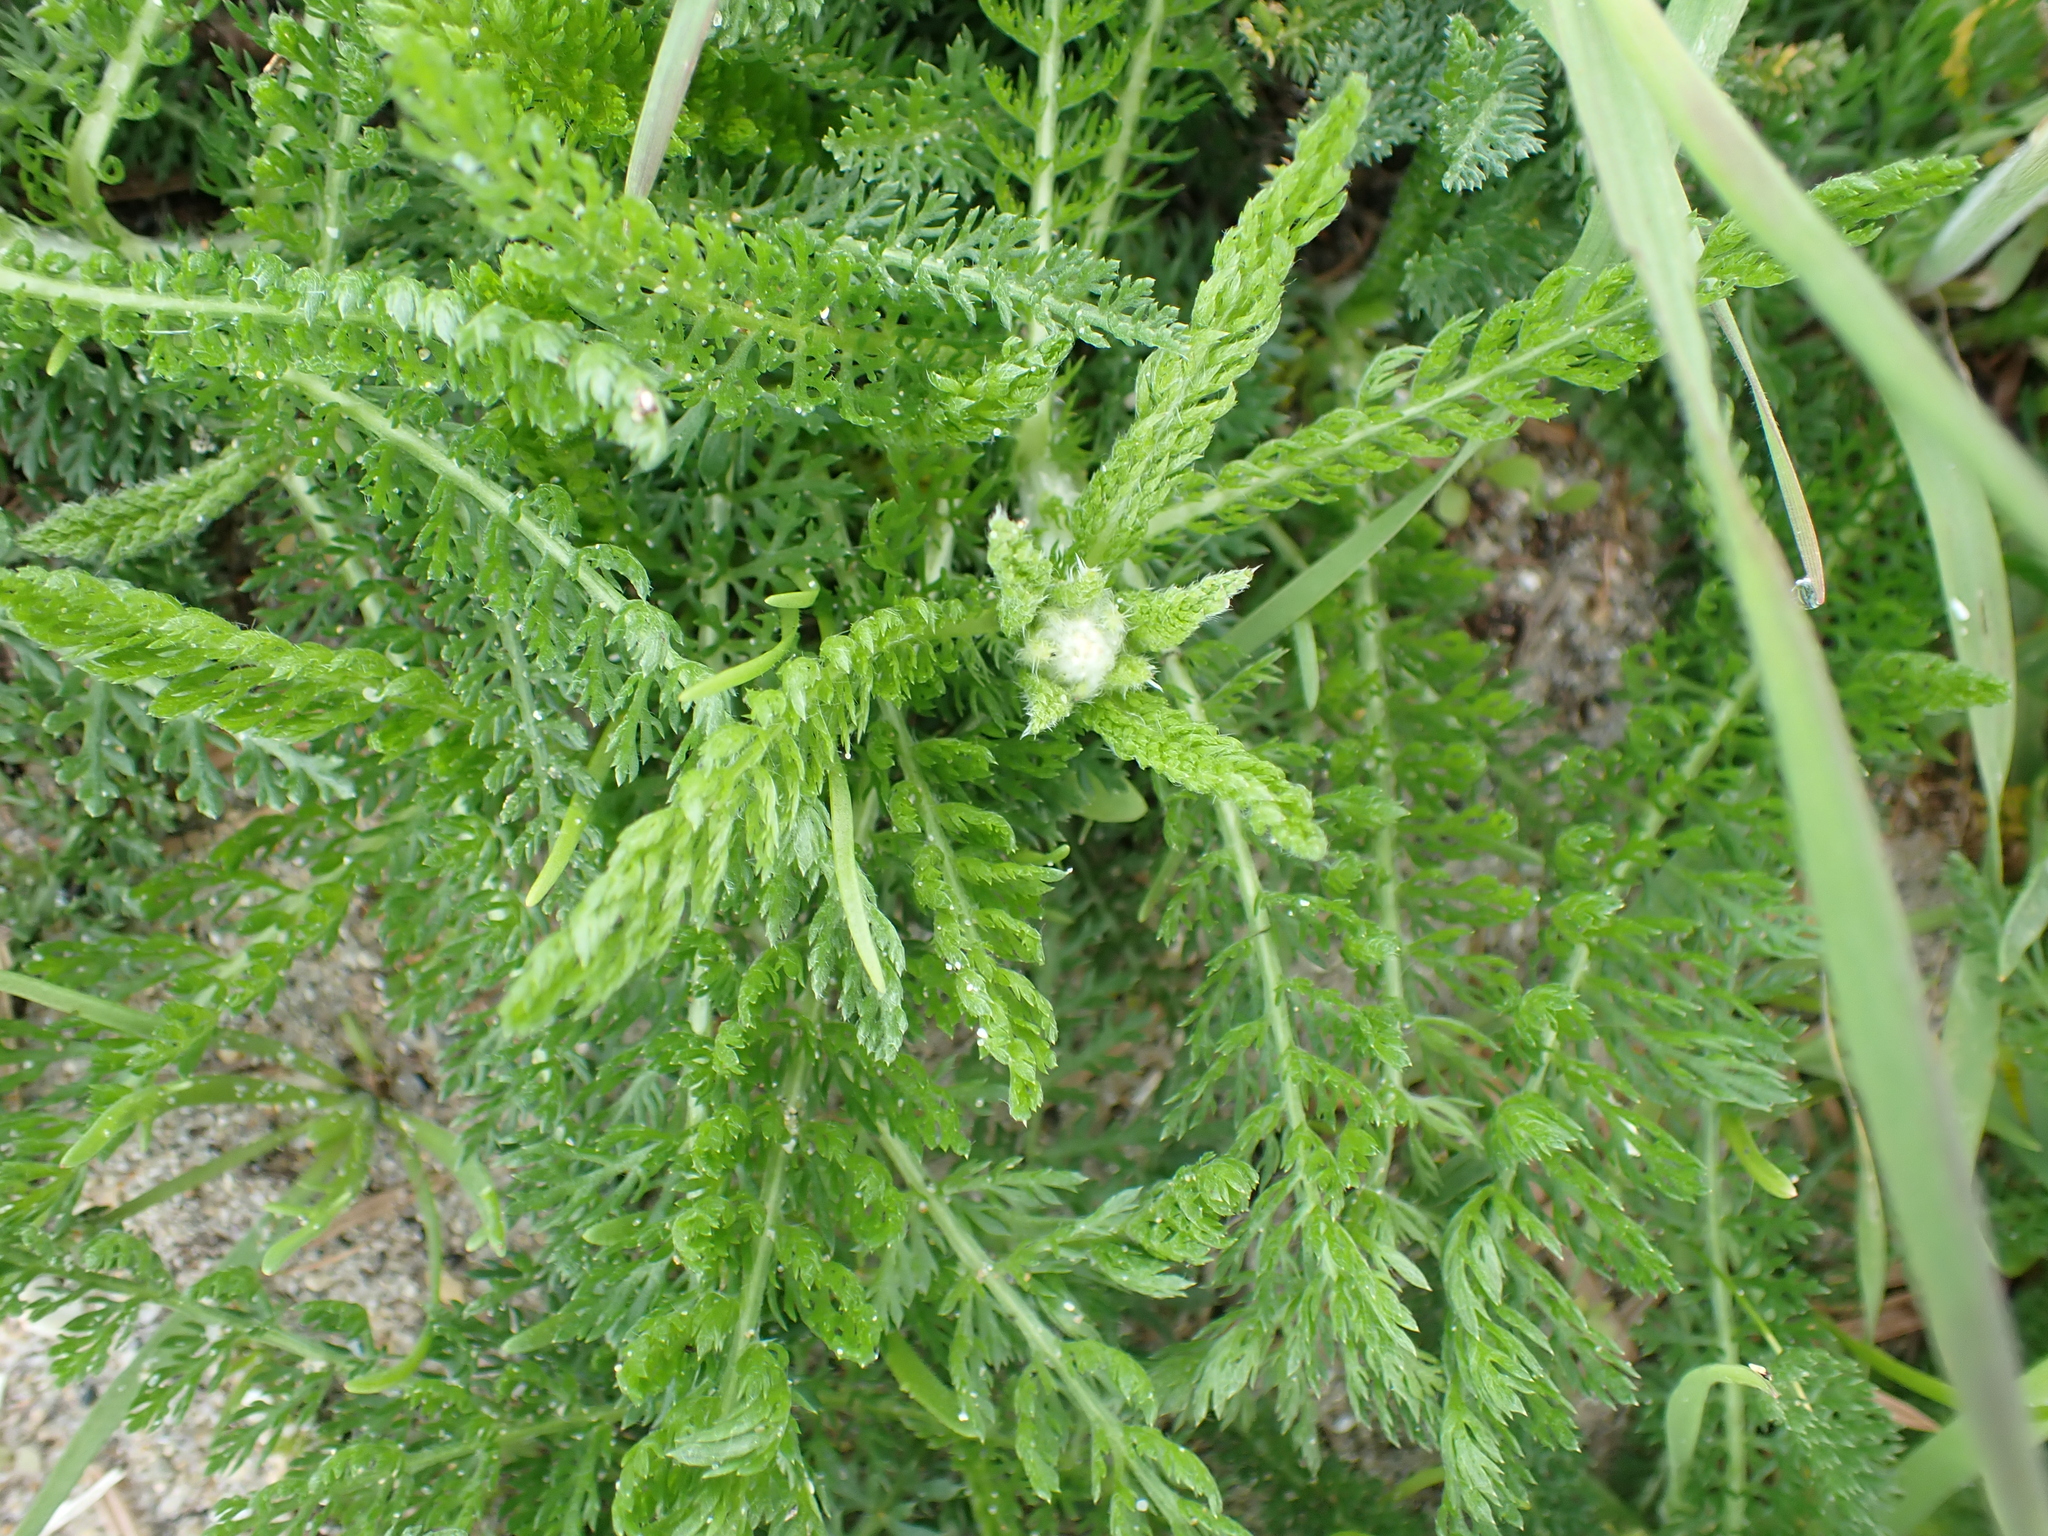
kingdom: Plantae
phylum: Tracheophyta
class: Magnoliopsida
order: Asterales
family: Asteraceae
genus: Achillea
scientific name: Achillea millefolium
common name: Yarrow
